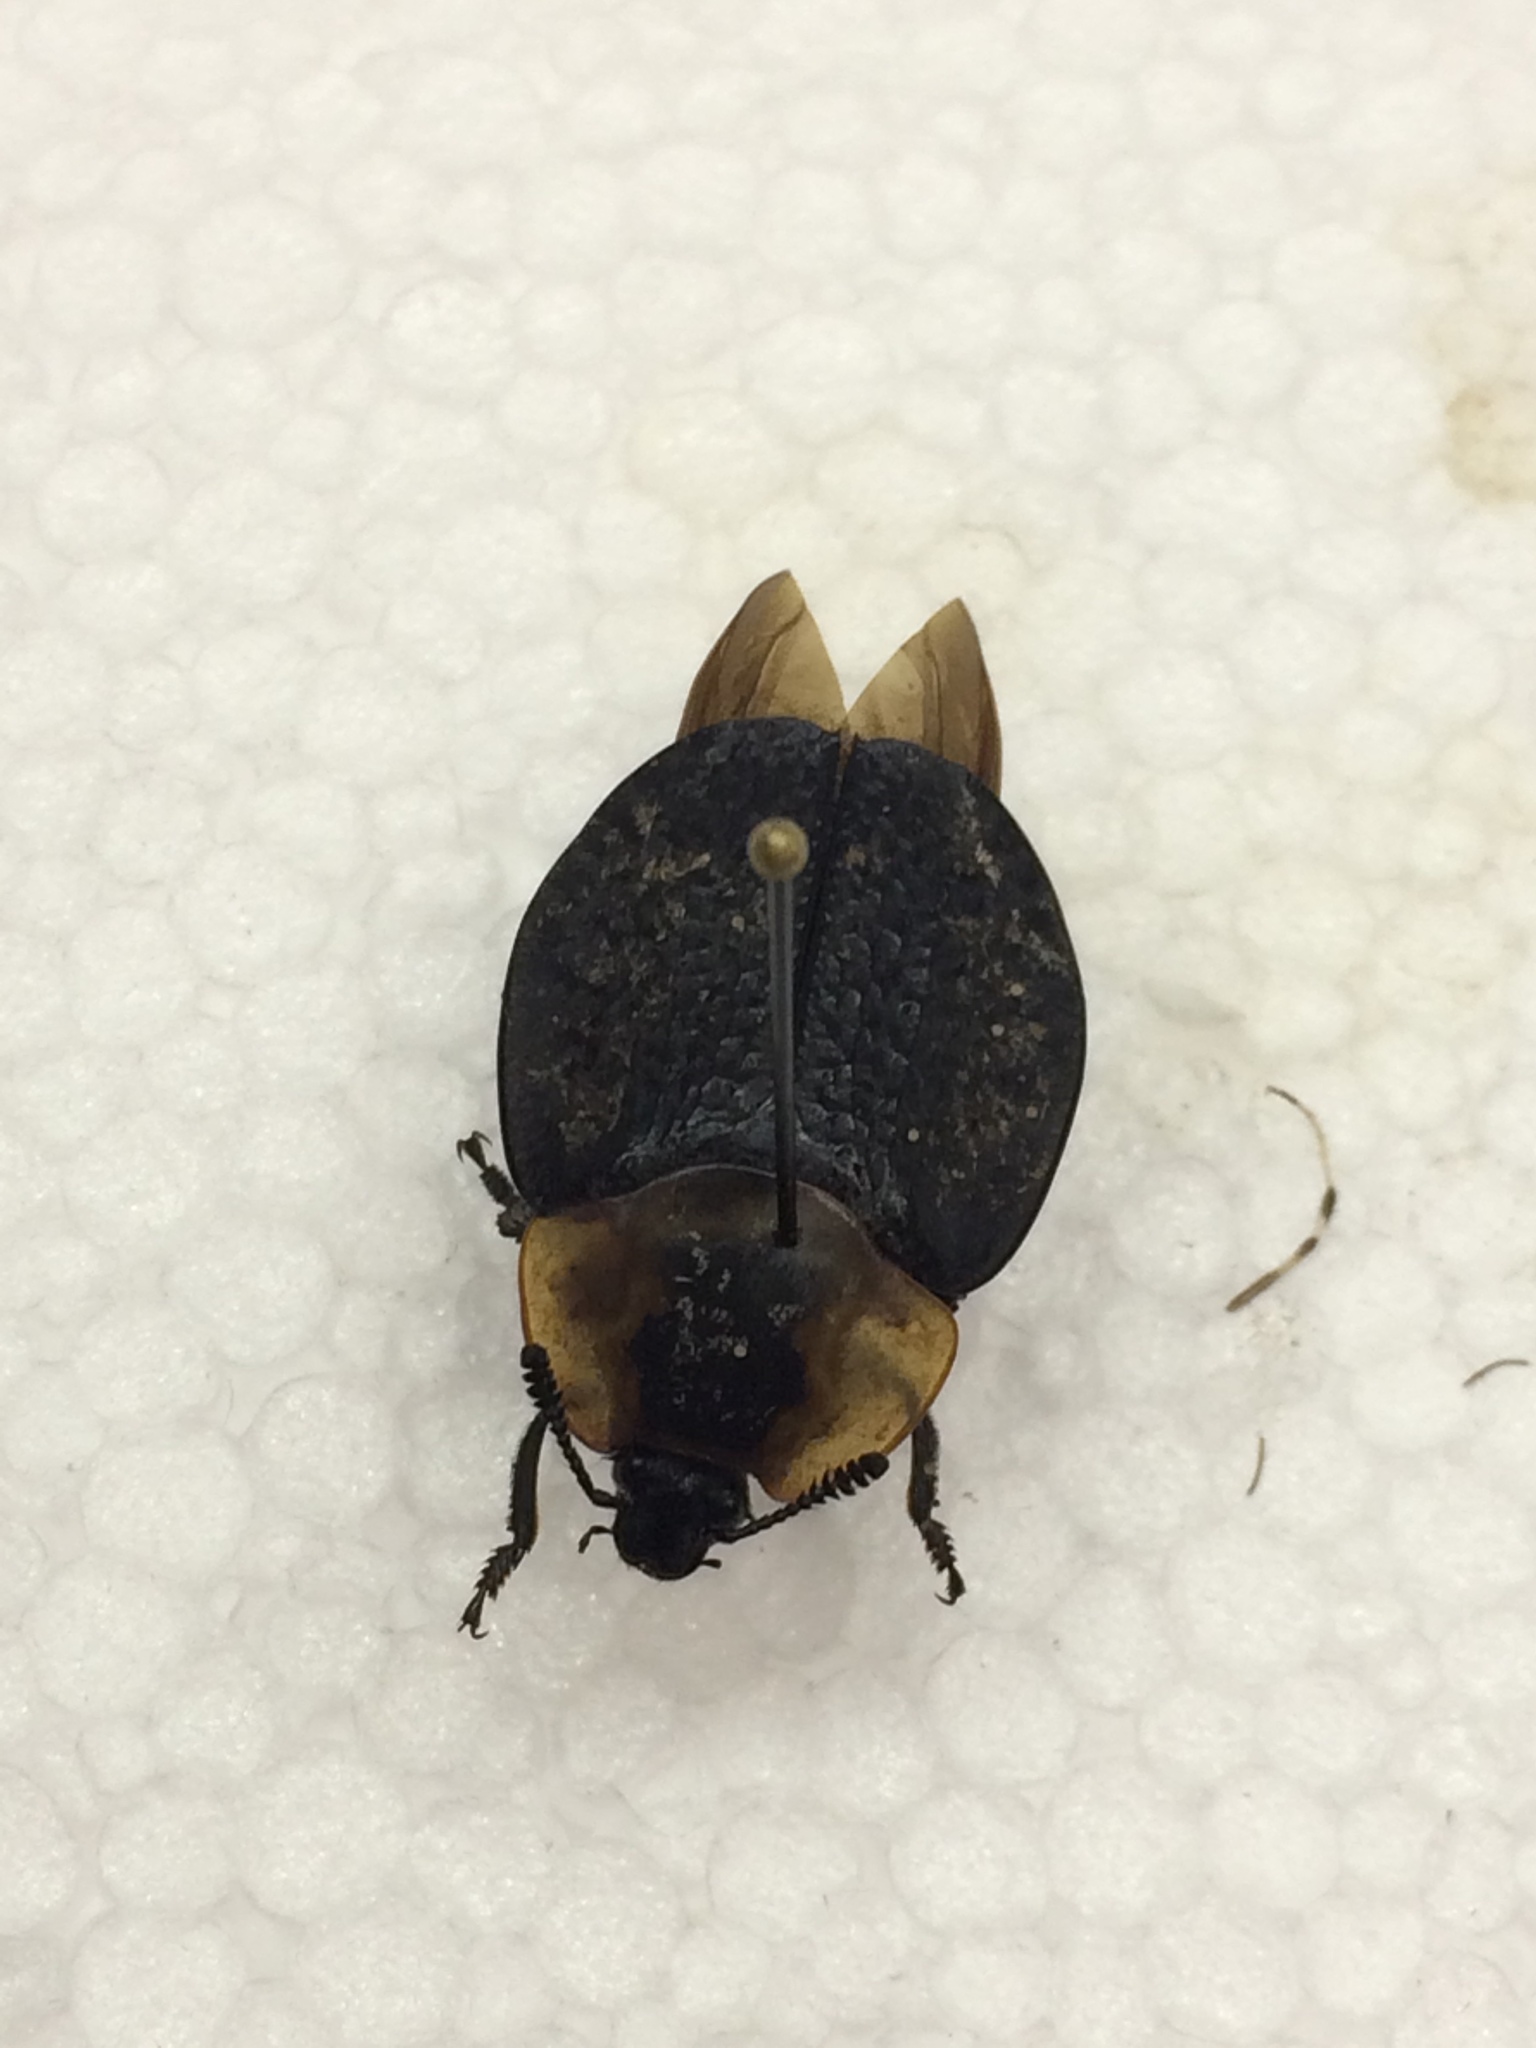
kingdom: Animalia
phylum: Arthropoda
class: Insecta
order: Coleoptera
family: Staphylinidae
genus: Necrophila
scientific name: Necrophila americana
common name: American carrion beetle
